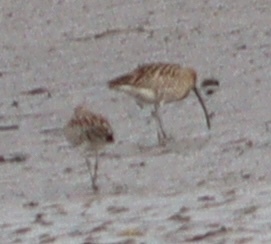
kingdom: Animalia
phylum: Chordata
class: Aves
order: Charadriiformes
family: Scolopacidae
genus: Numenius
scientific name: Numenius arquata
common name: Eurasian curlew
